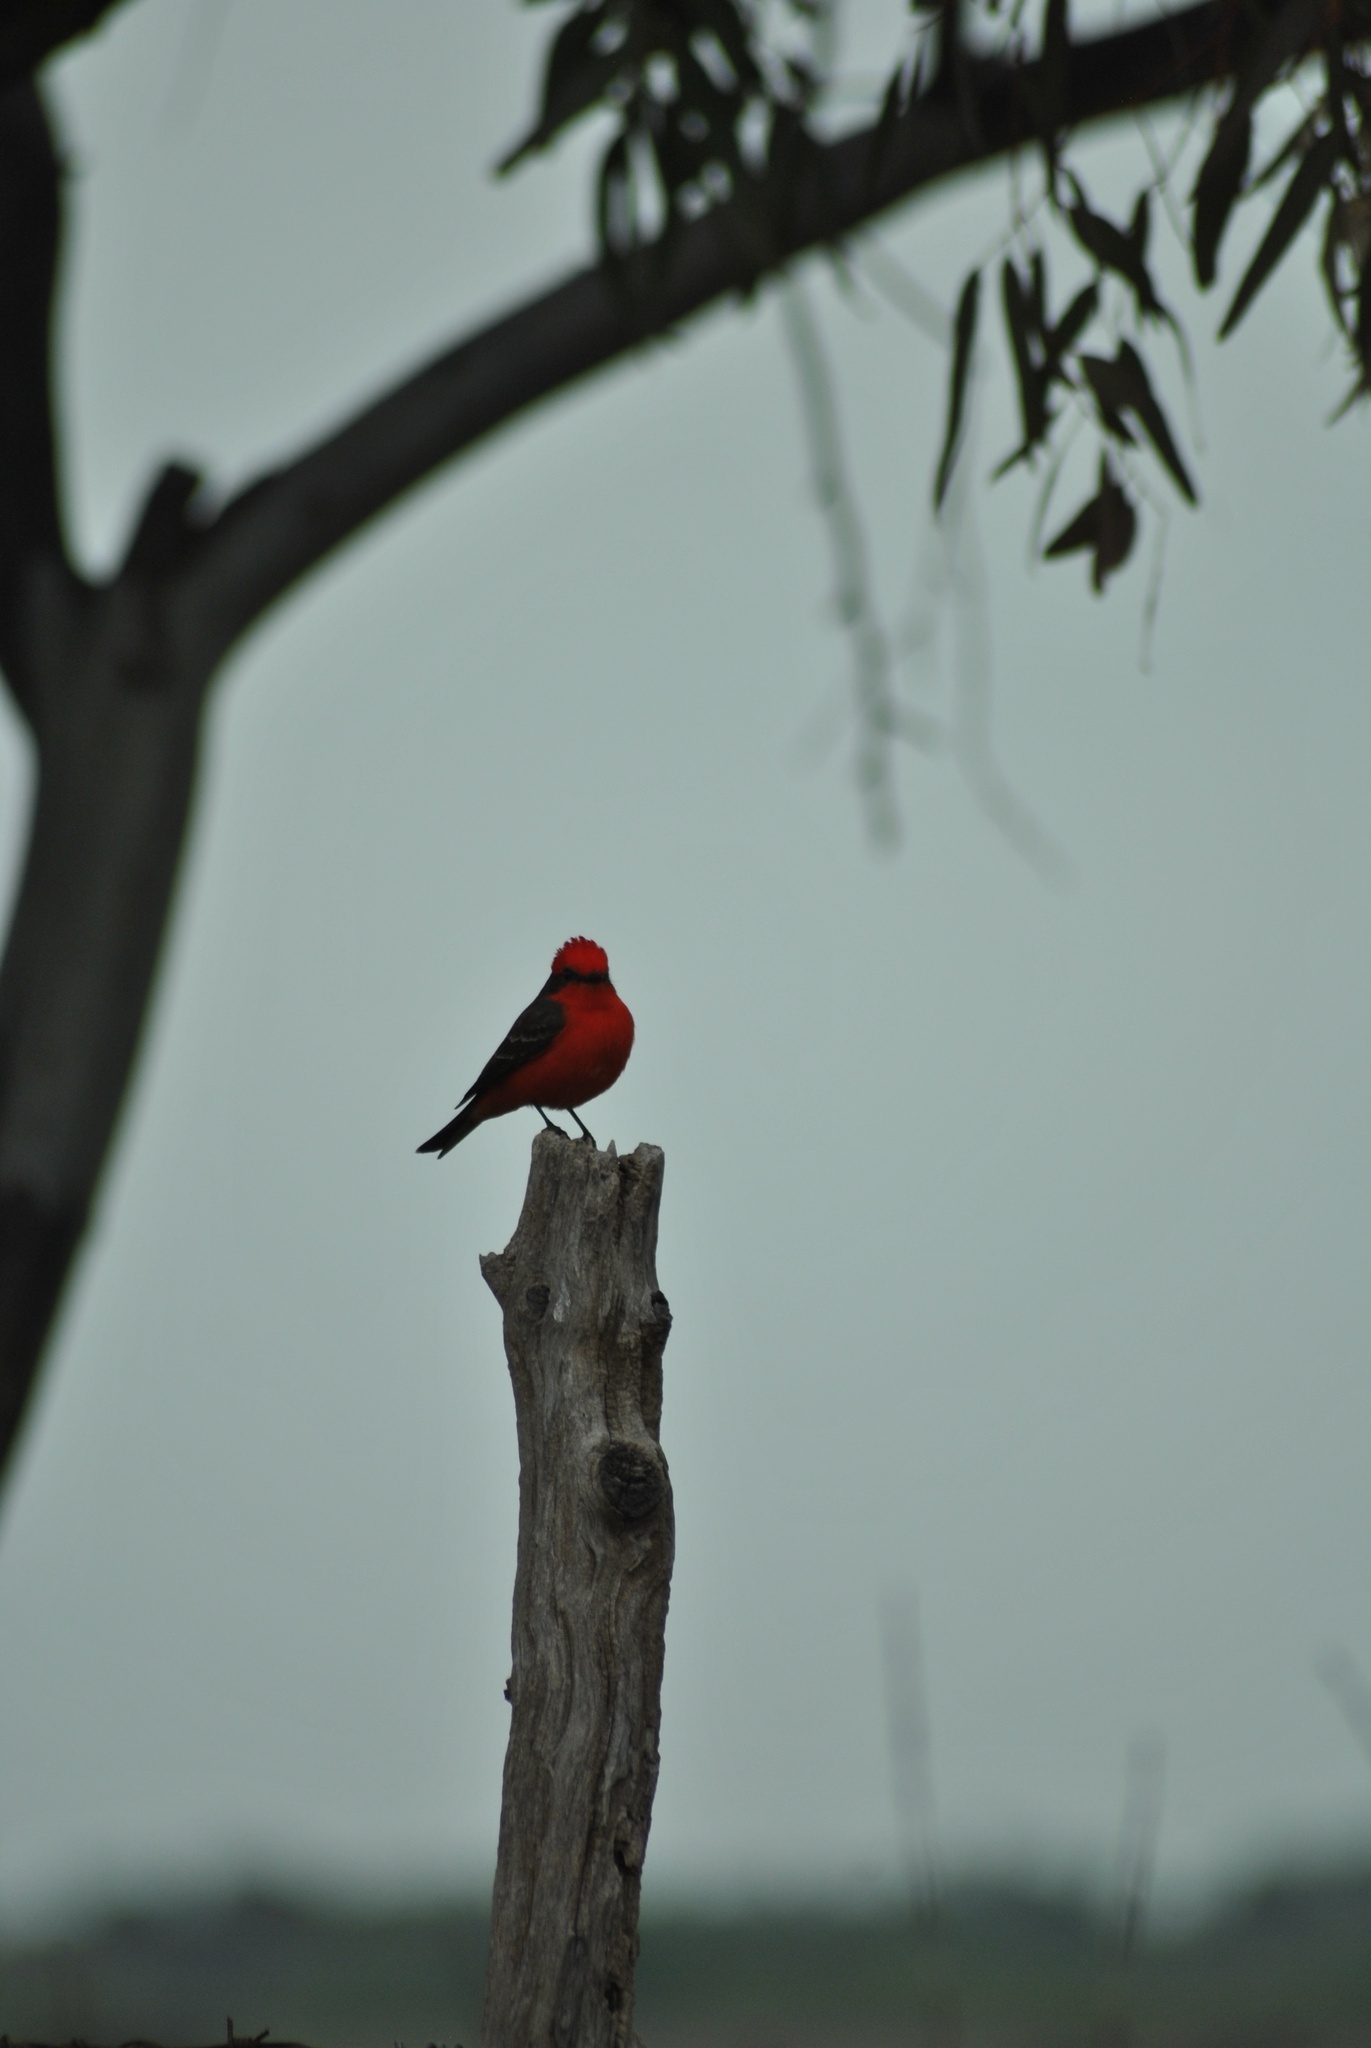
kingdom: Animalia
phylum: Chordata
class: Aves
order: Passeriformes
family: Tyrannidae
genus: Pyrocephalus
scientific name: Pyrocephalus rubinus
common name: Vermilion flycatcher
